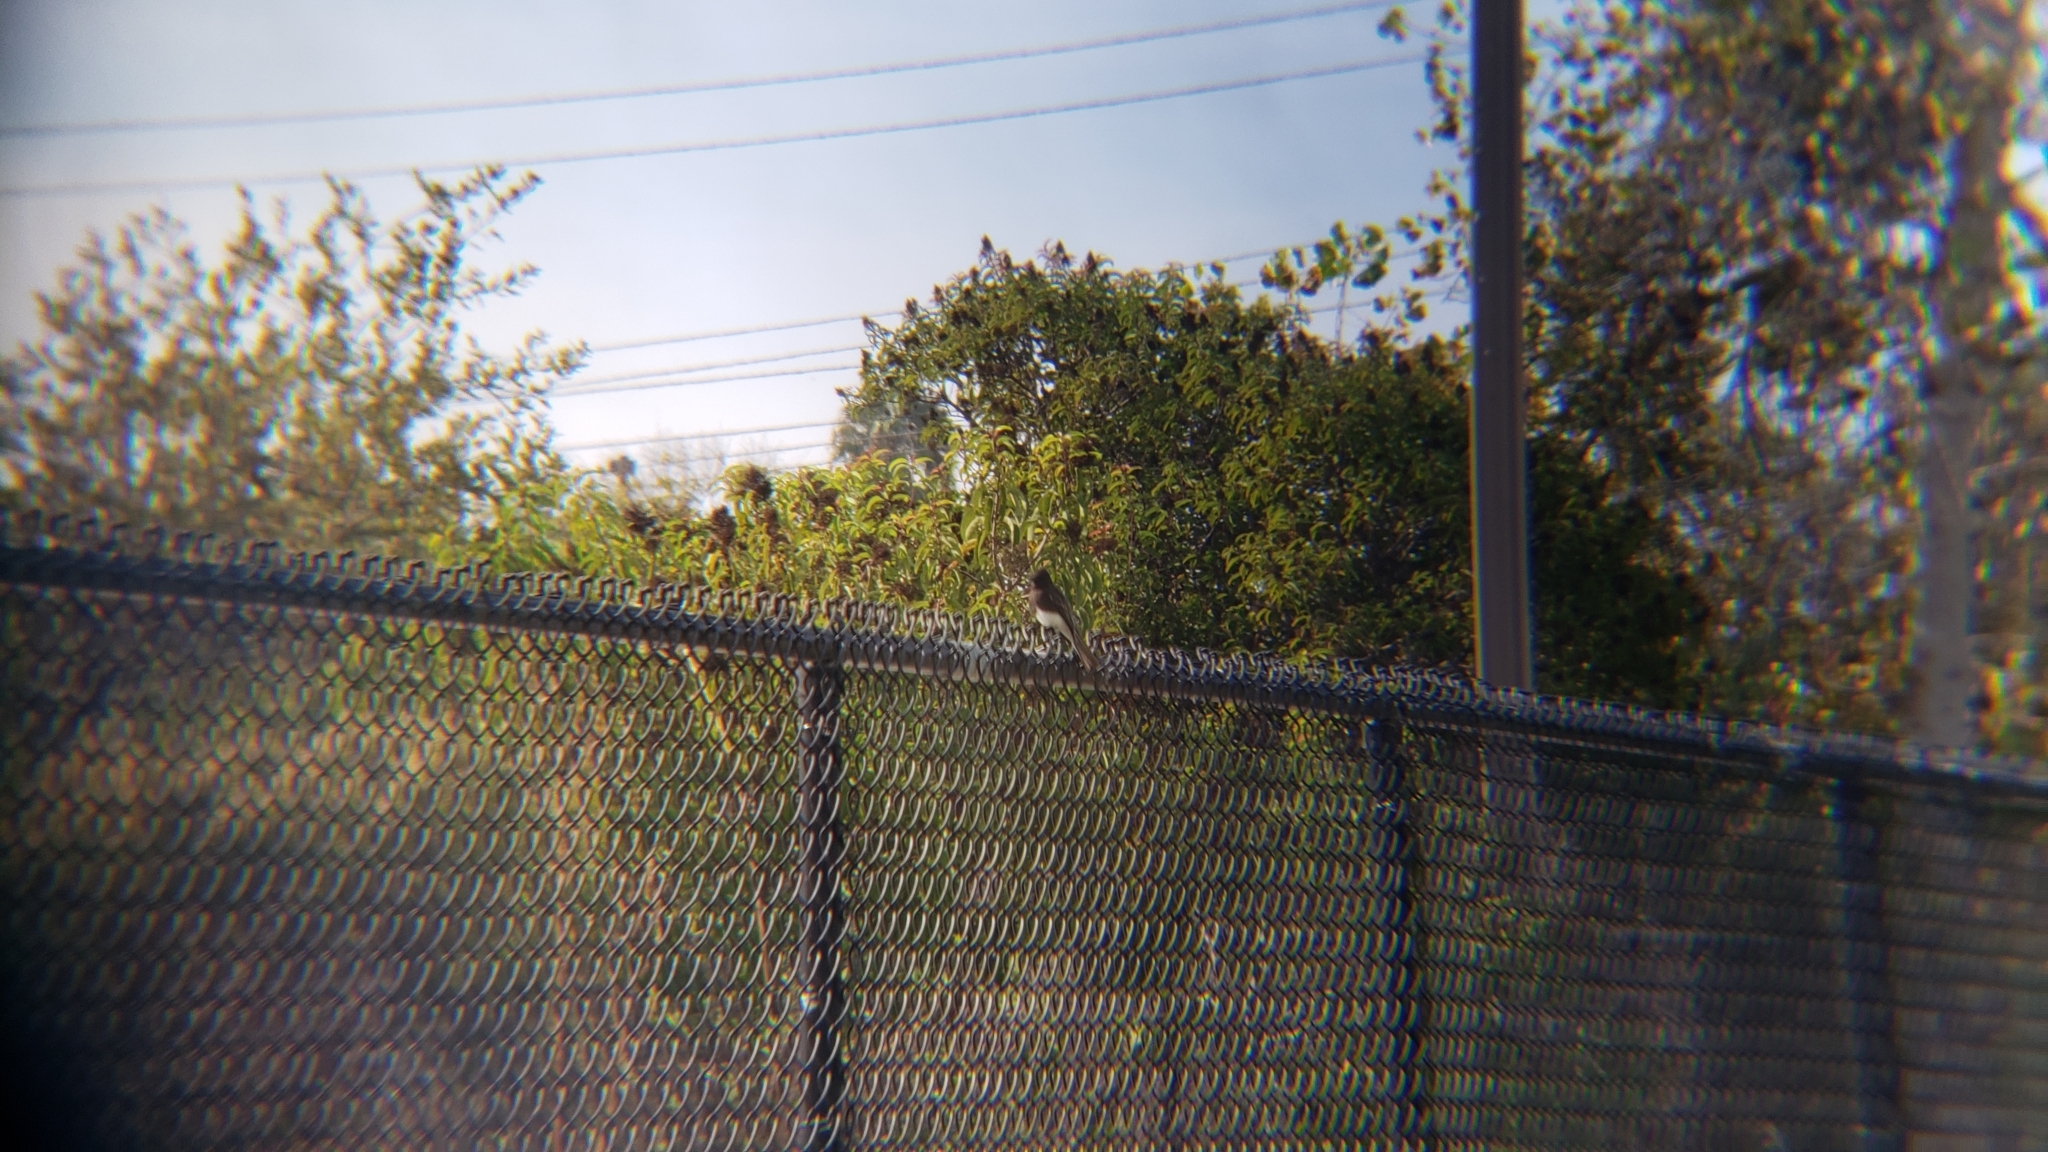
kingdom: Animalia
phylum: Chordata
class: Aves
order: Passeriformes
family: Tyrannidae
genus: Sayornis
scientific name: Sayornis nigricans
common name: Black phoebe
